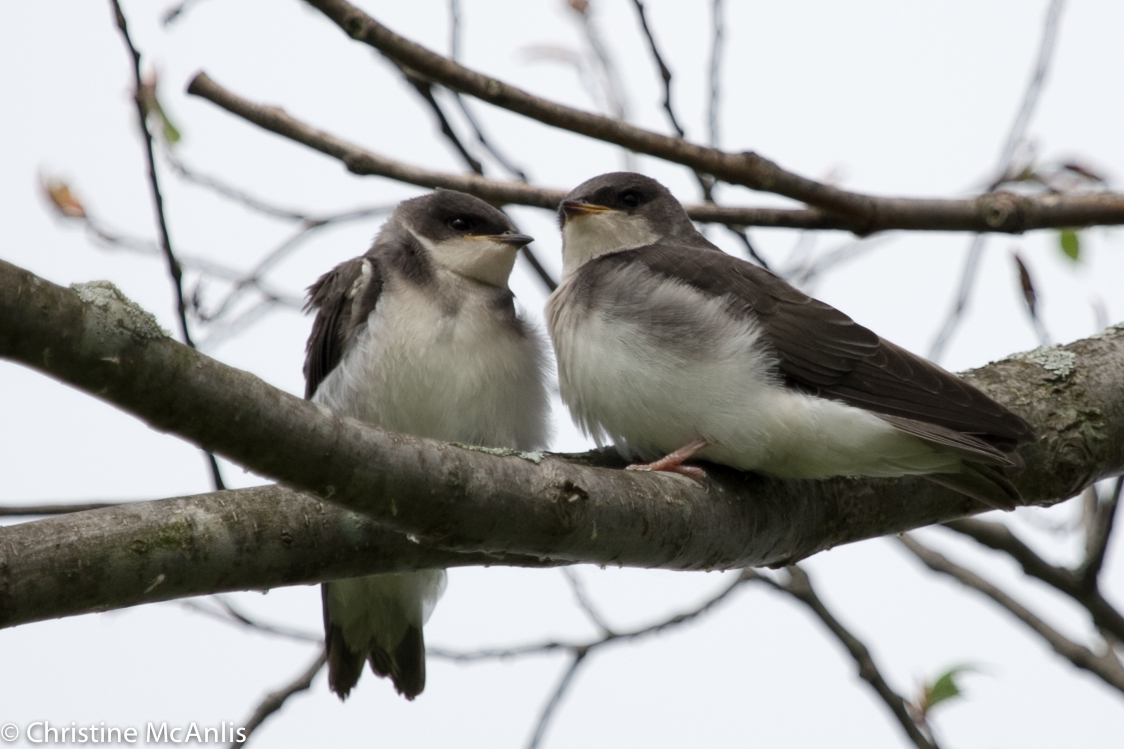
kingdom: Animalia
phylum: Chordata
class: Aves
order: Passeriformes
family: Hirundinidae
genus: Tachycineta
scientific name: Tachycineta bicolor
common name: Tree swallow
